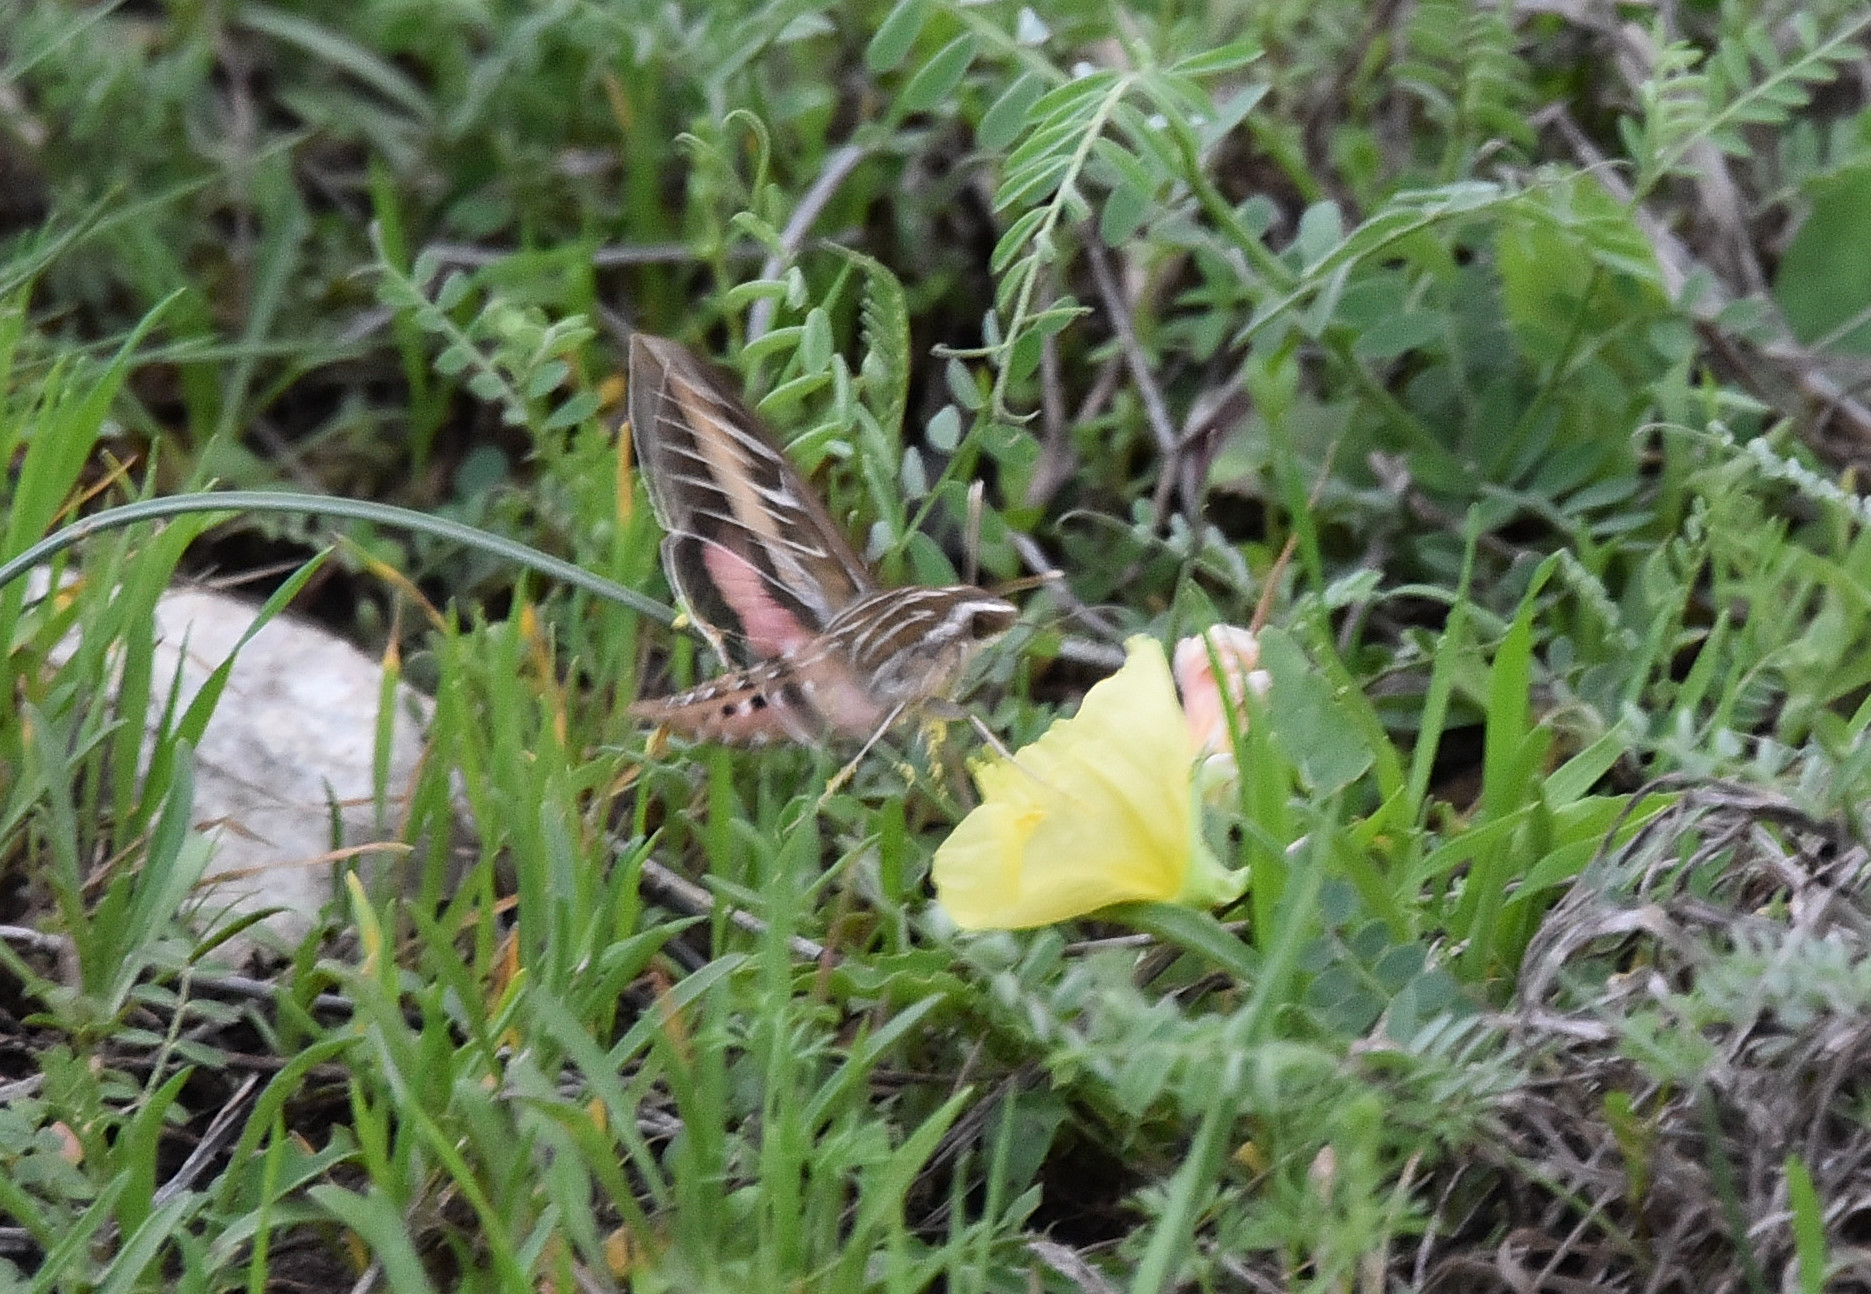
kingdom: Animalia
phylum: Arthropoda
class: Insecta
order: Lepidoptera
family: Sphingidae
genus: Hyles
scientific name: Hyles lineata
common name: White-lined sphinx
